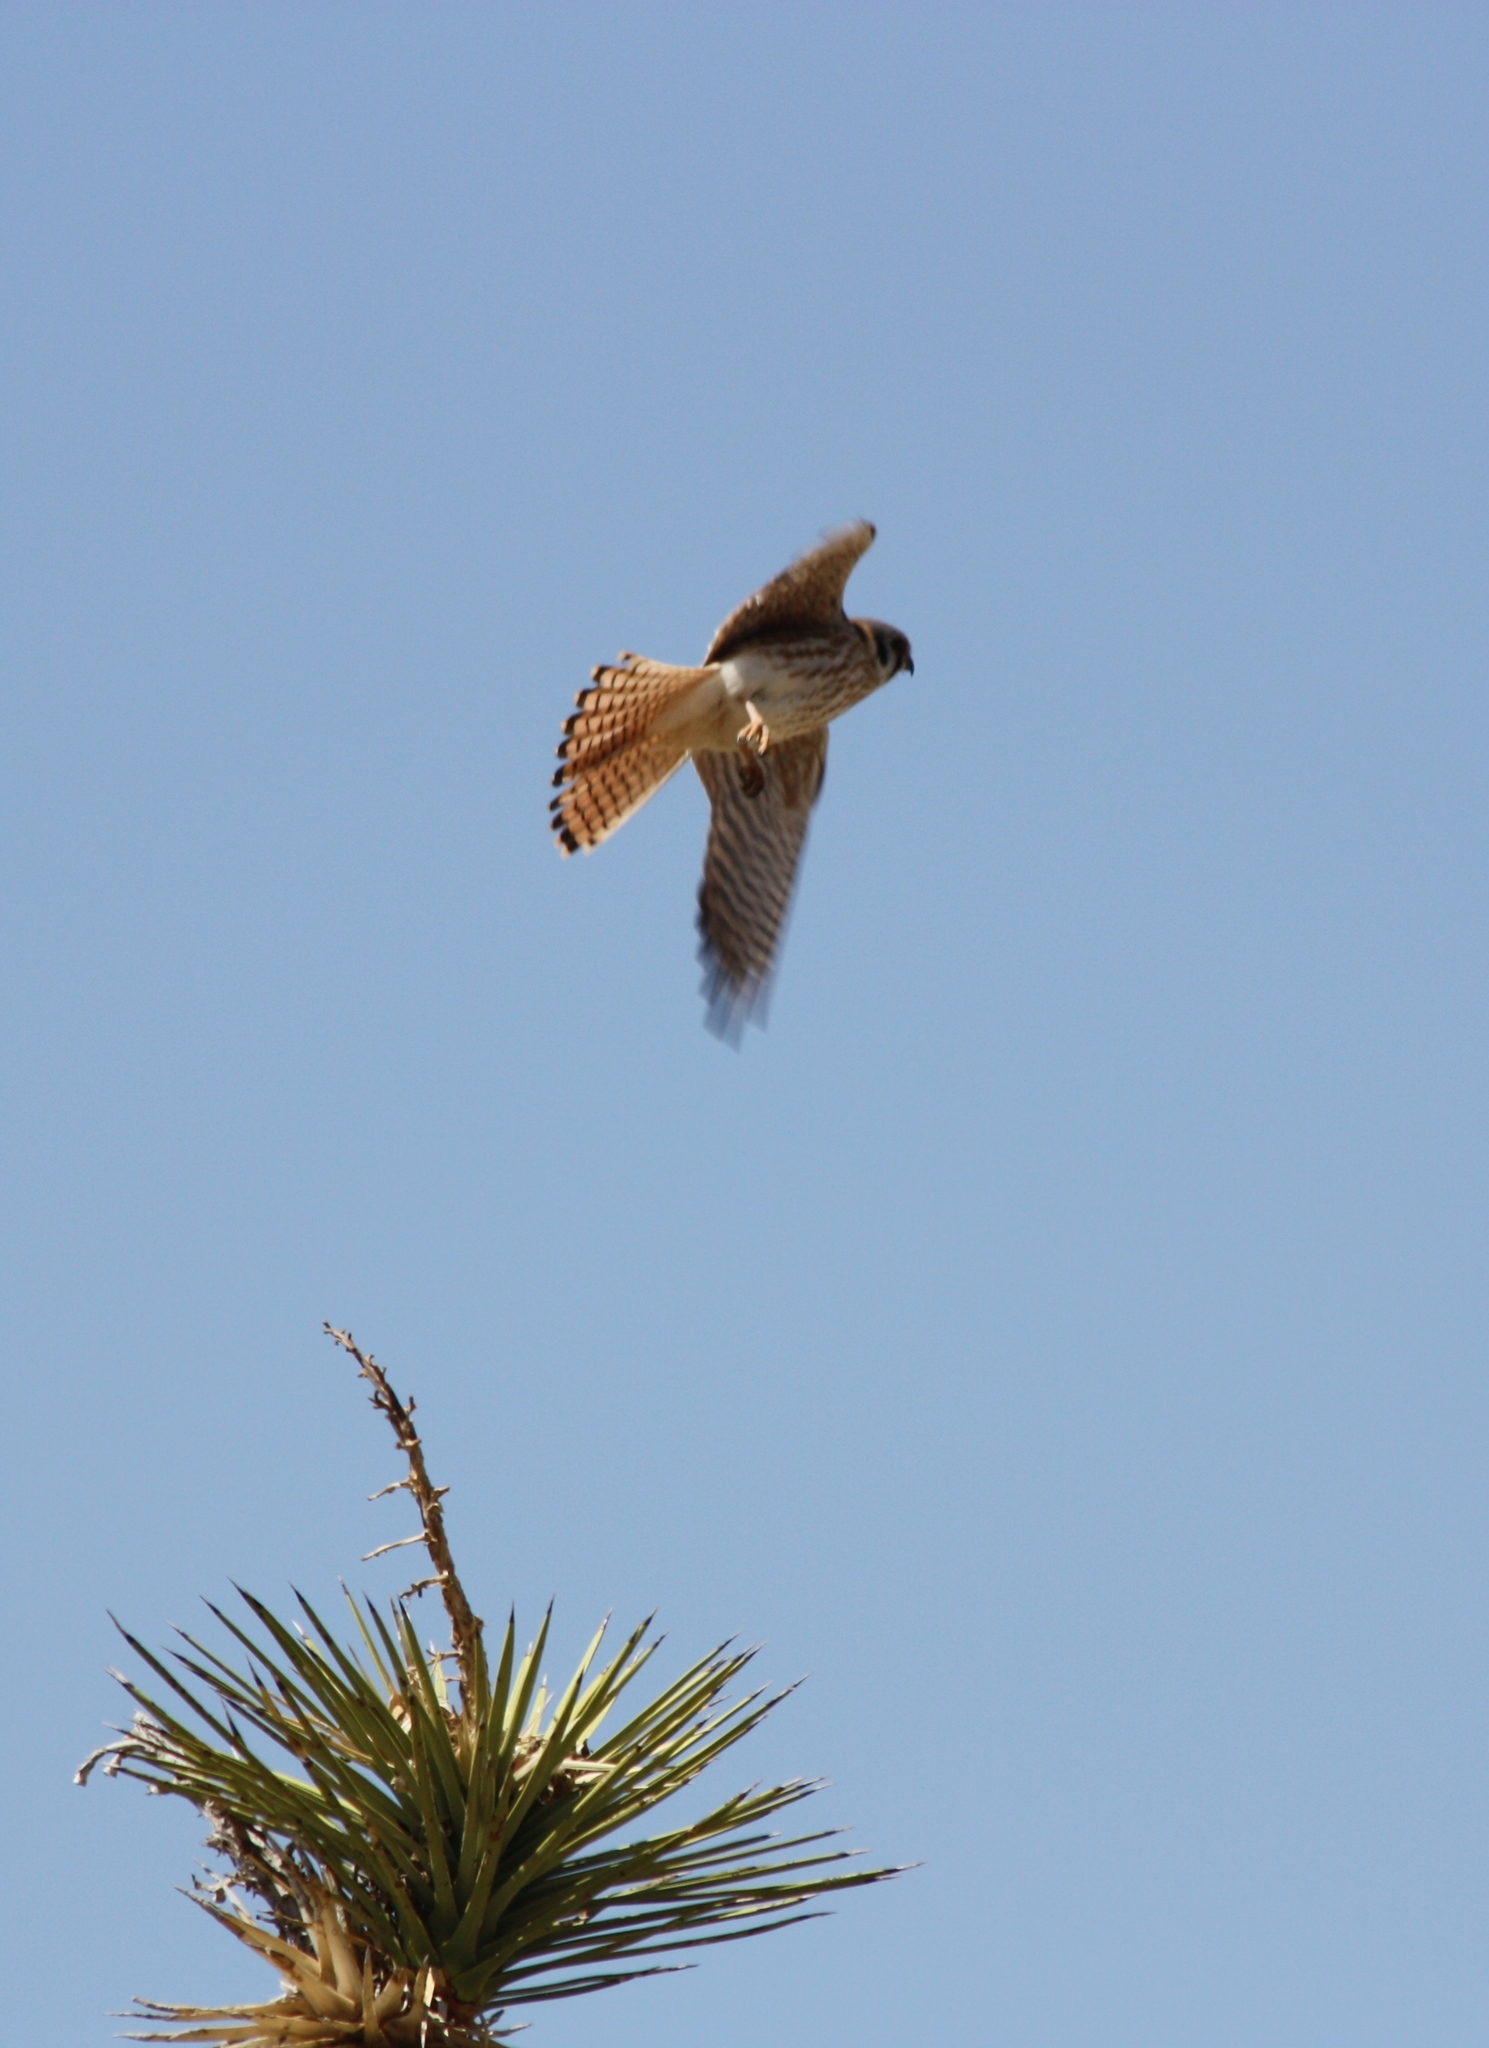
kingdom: Animalia
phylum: Chordata
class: Aves
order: Falconiformes
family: Falconidae
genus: Falco
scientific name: Falco sparverius
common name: American kestrel
